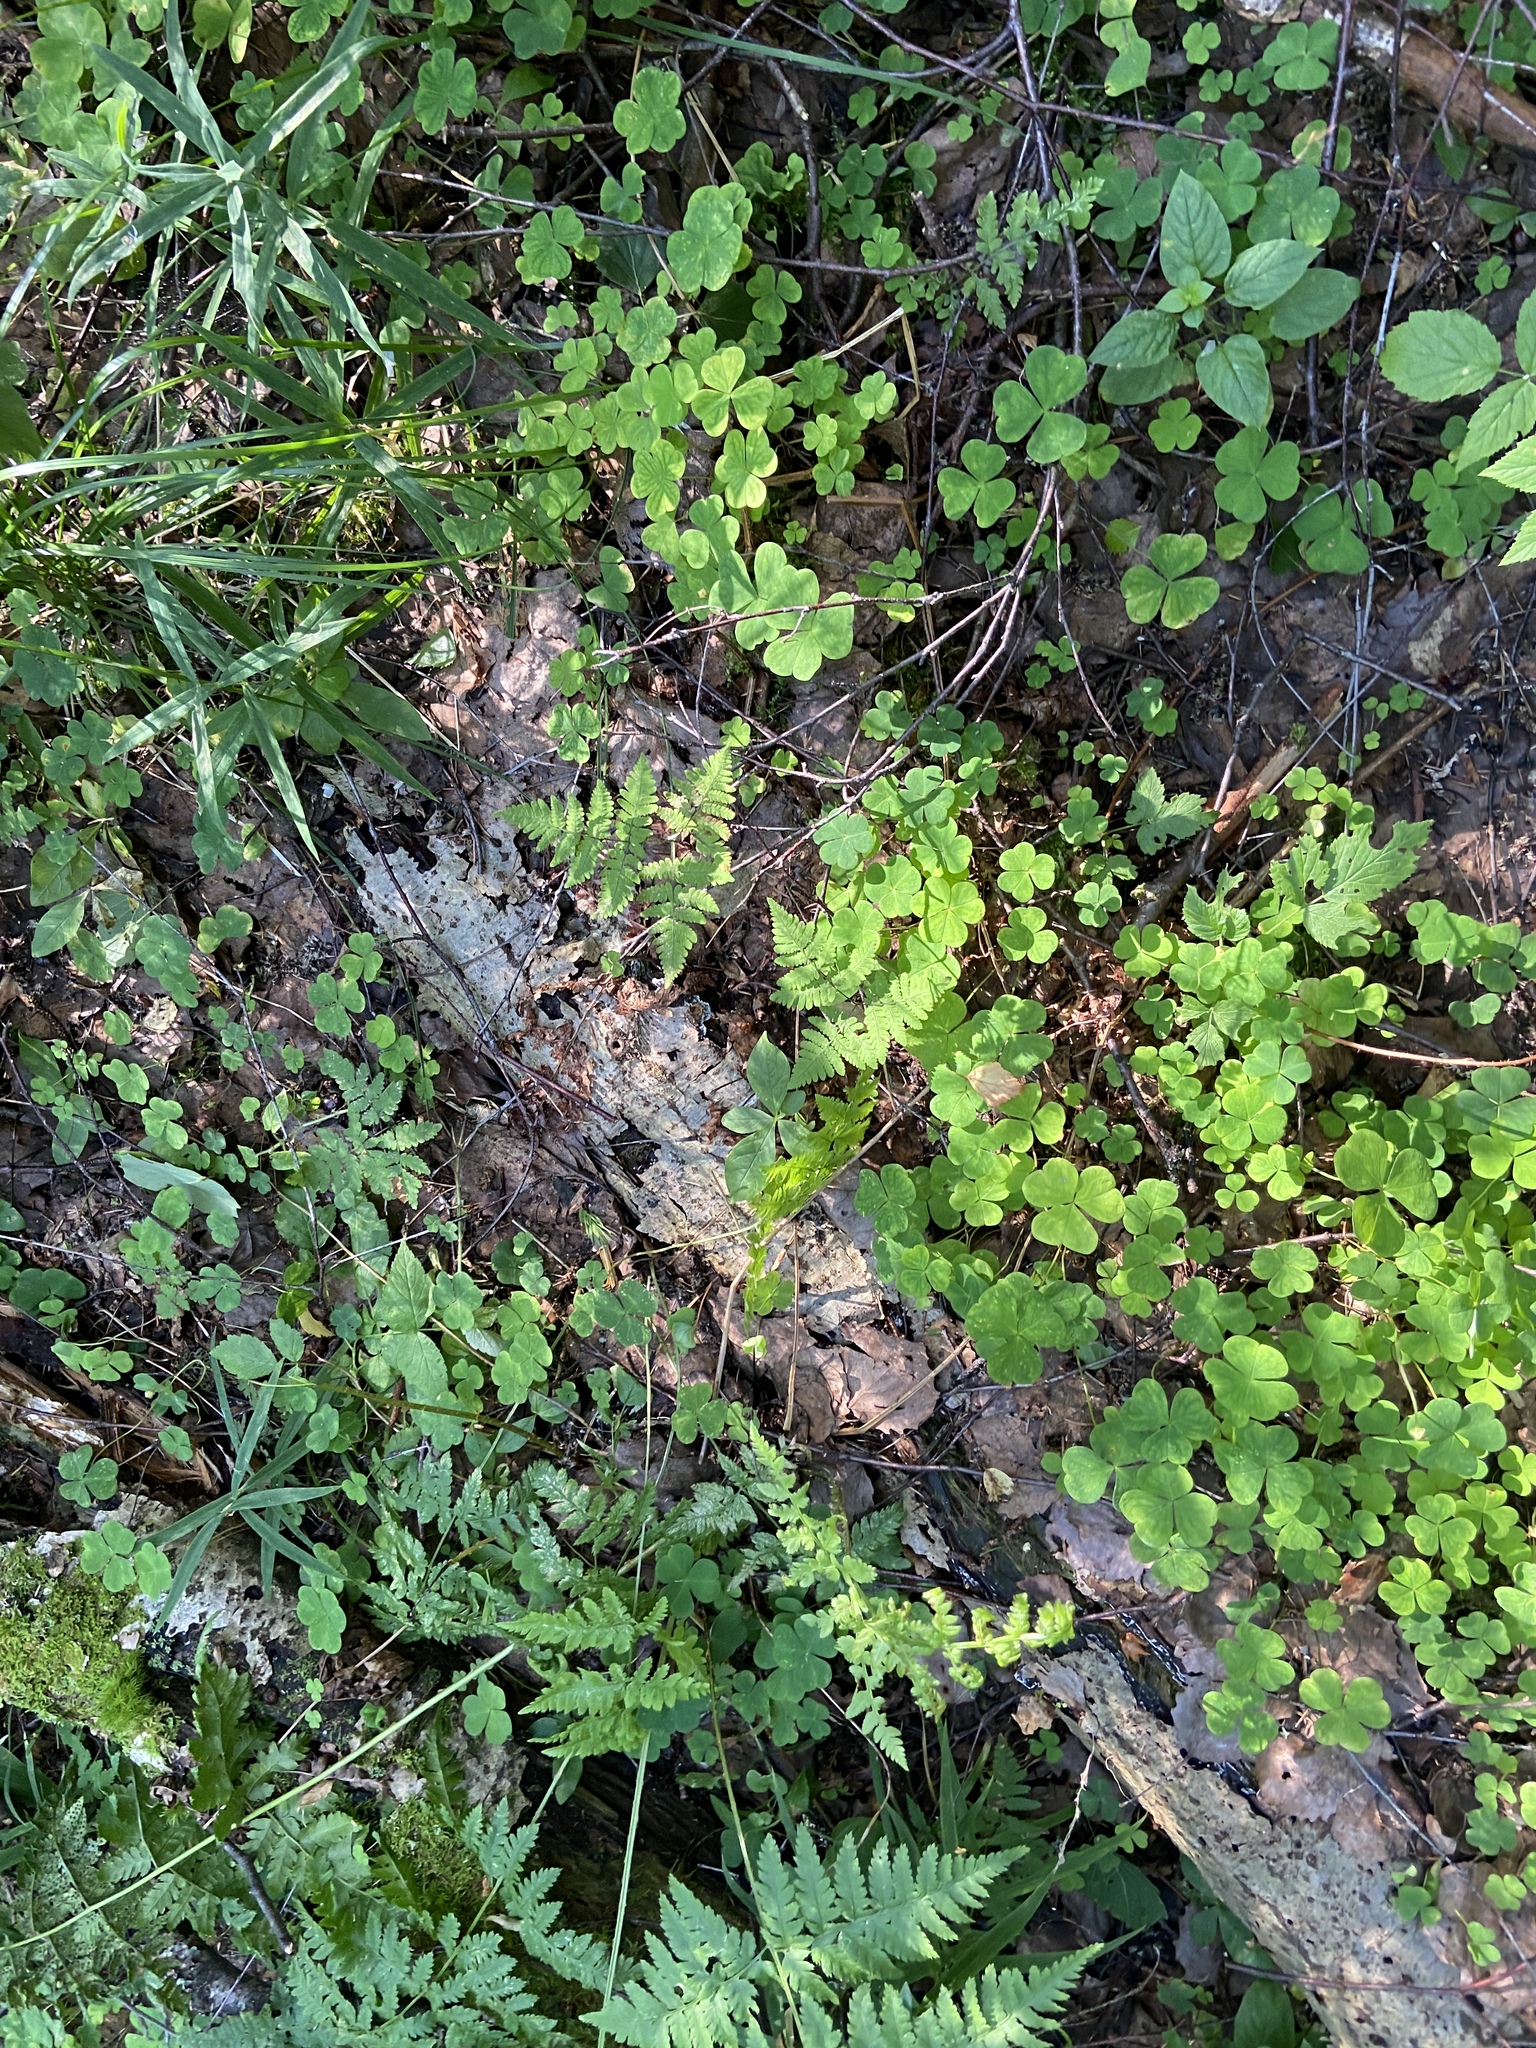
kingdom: Plantae
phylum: Tracheophyta
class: Magnoliopsida
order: Oxalidales
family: Oxalidaceae
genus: Oxalis
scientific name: Oxalis acetosella
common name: Wood-sorrel
